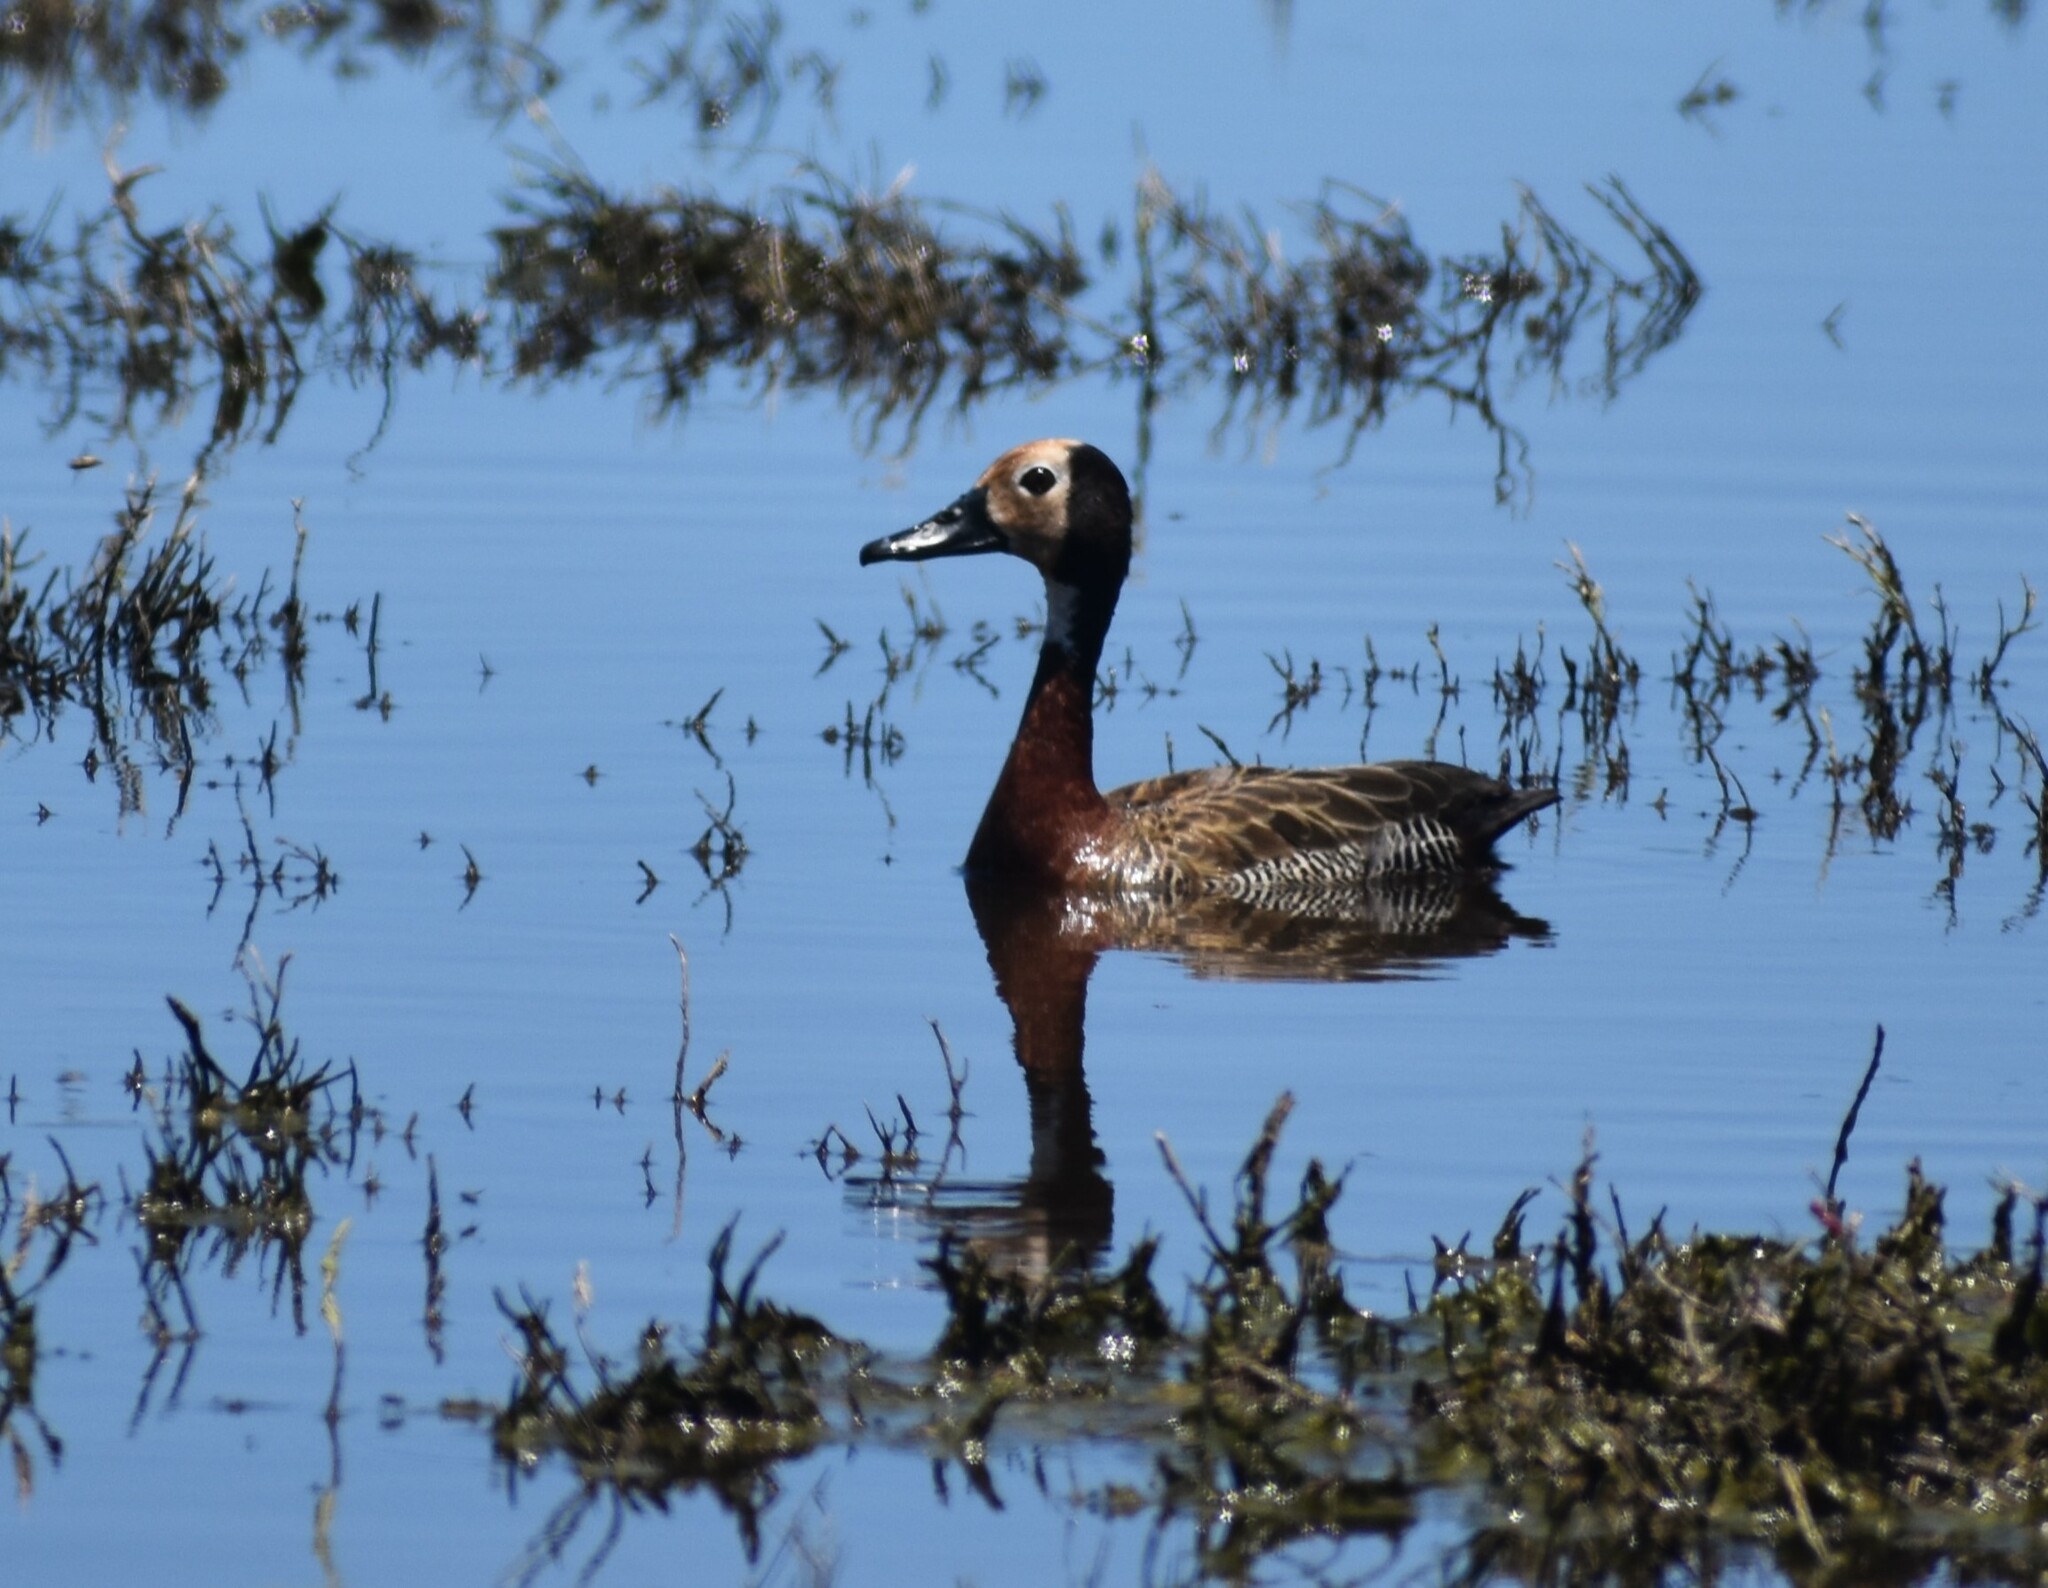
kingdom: Animalia
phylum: Chordata
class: Aves
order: Anseriformes
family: Anatidae
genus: Dendrocygna
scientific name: Dendrocygna viduata
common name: White-faced whistling duck
